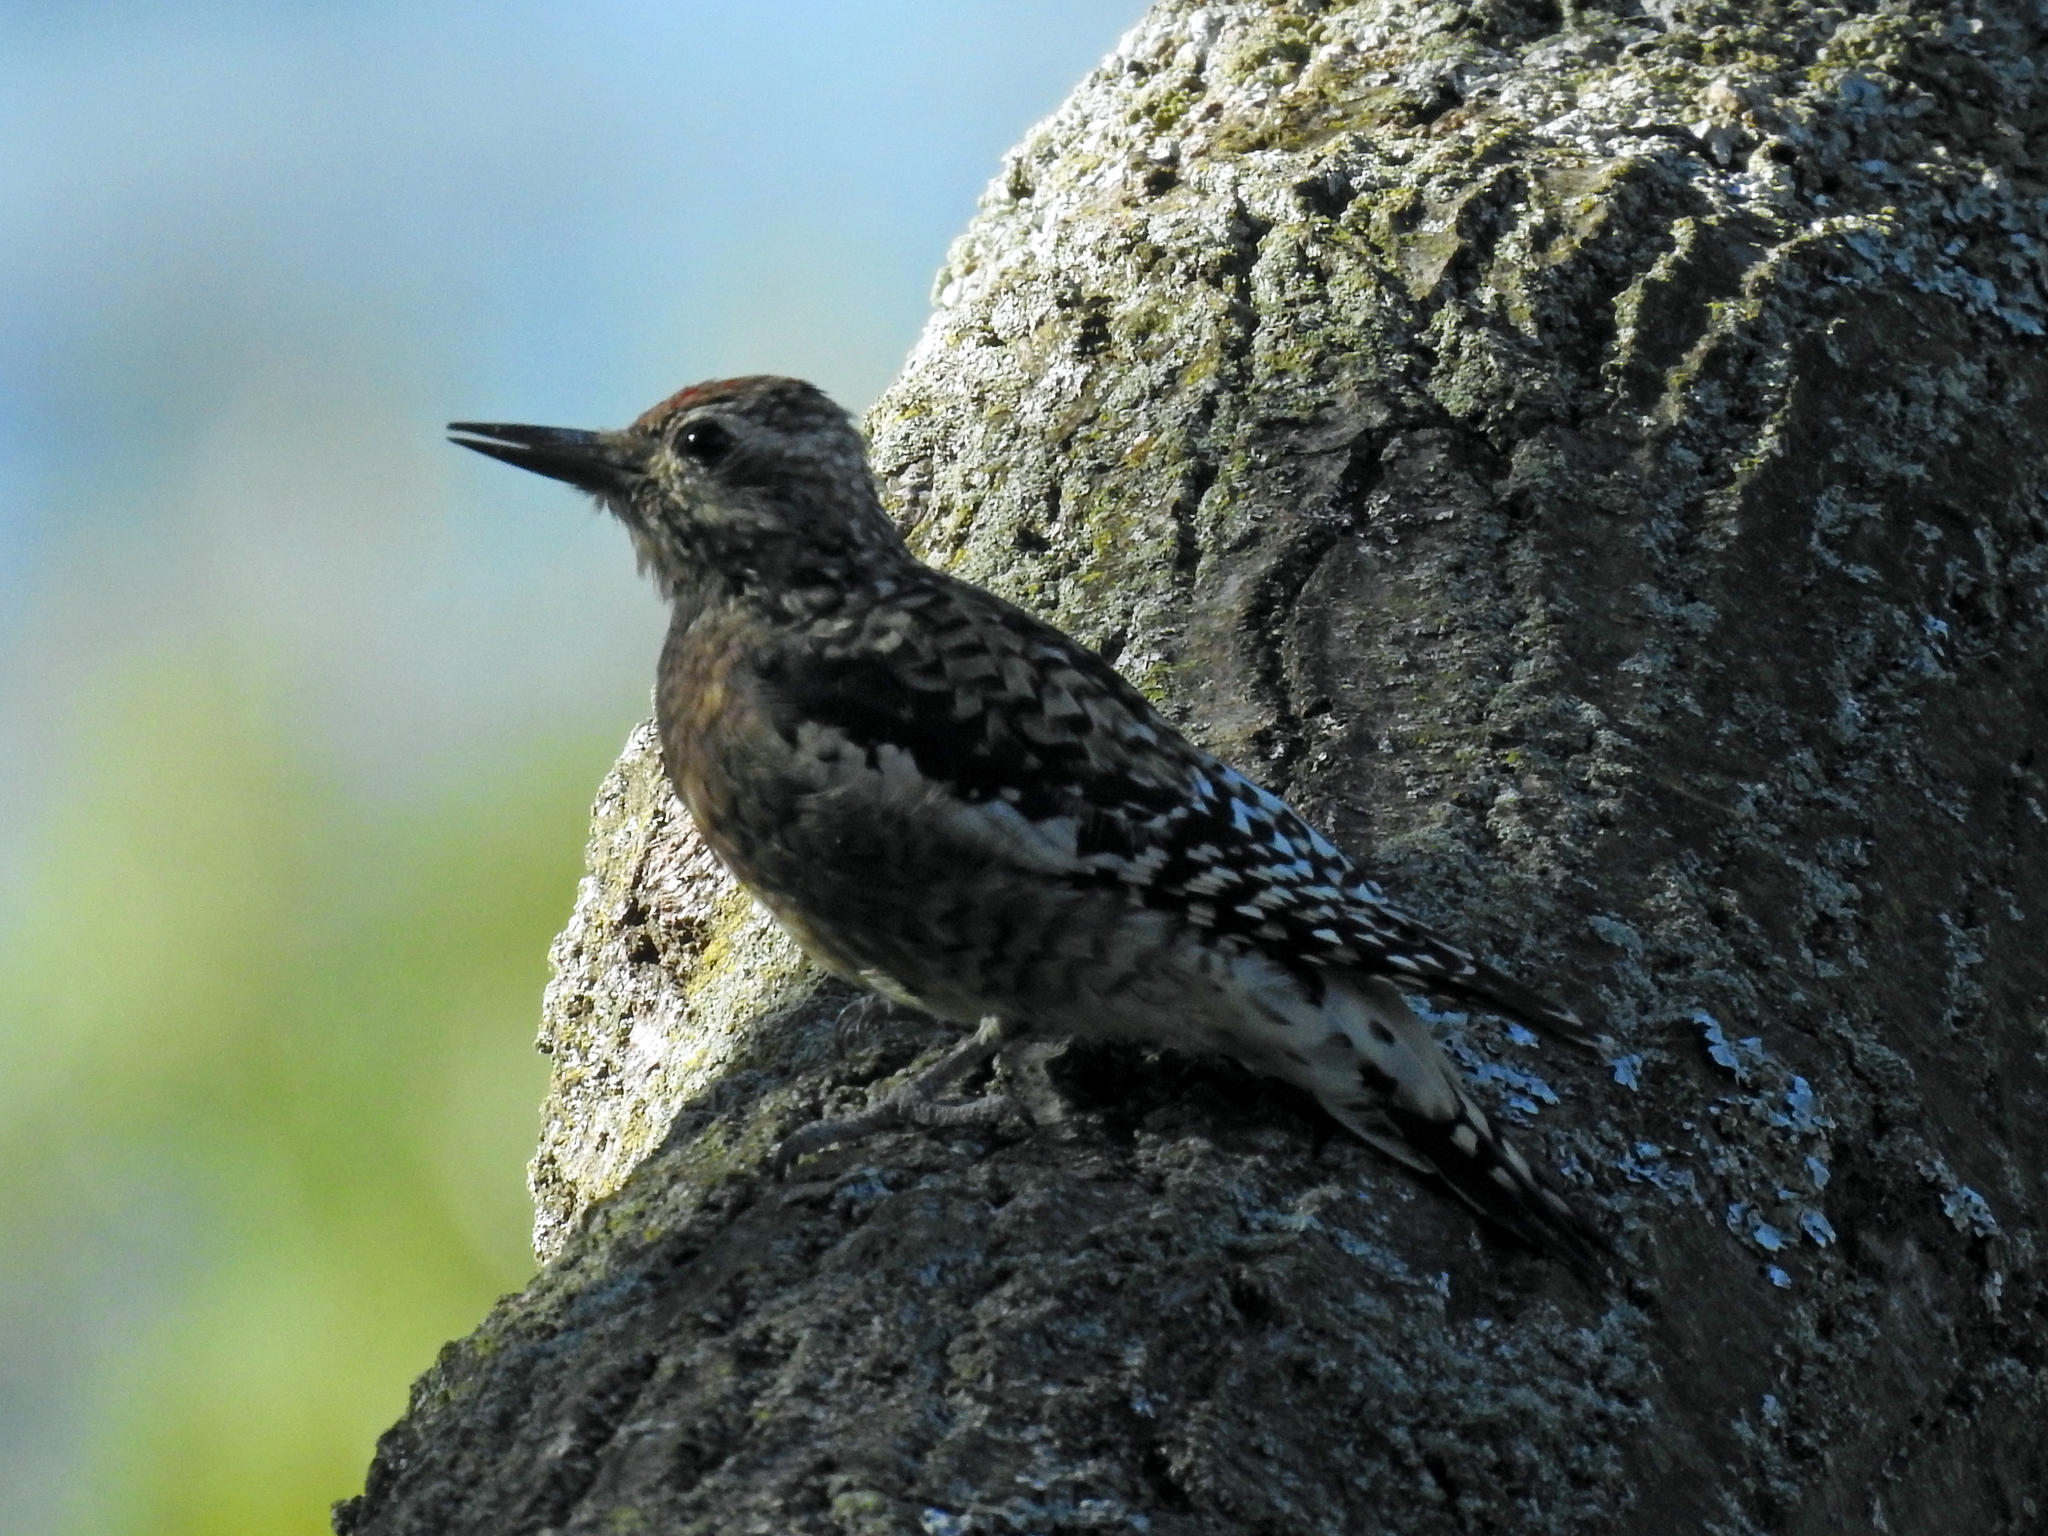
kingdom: Animalia
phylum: Chordata
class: Aves
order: Piciformes
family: Picidae
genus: Sphyrapicus
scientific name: Sphyrapicus varius
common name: Yellow-bellied sapsucker
